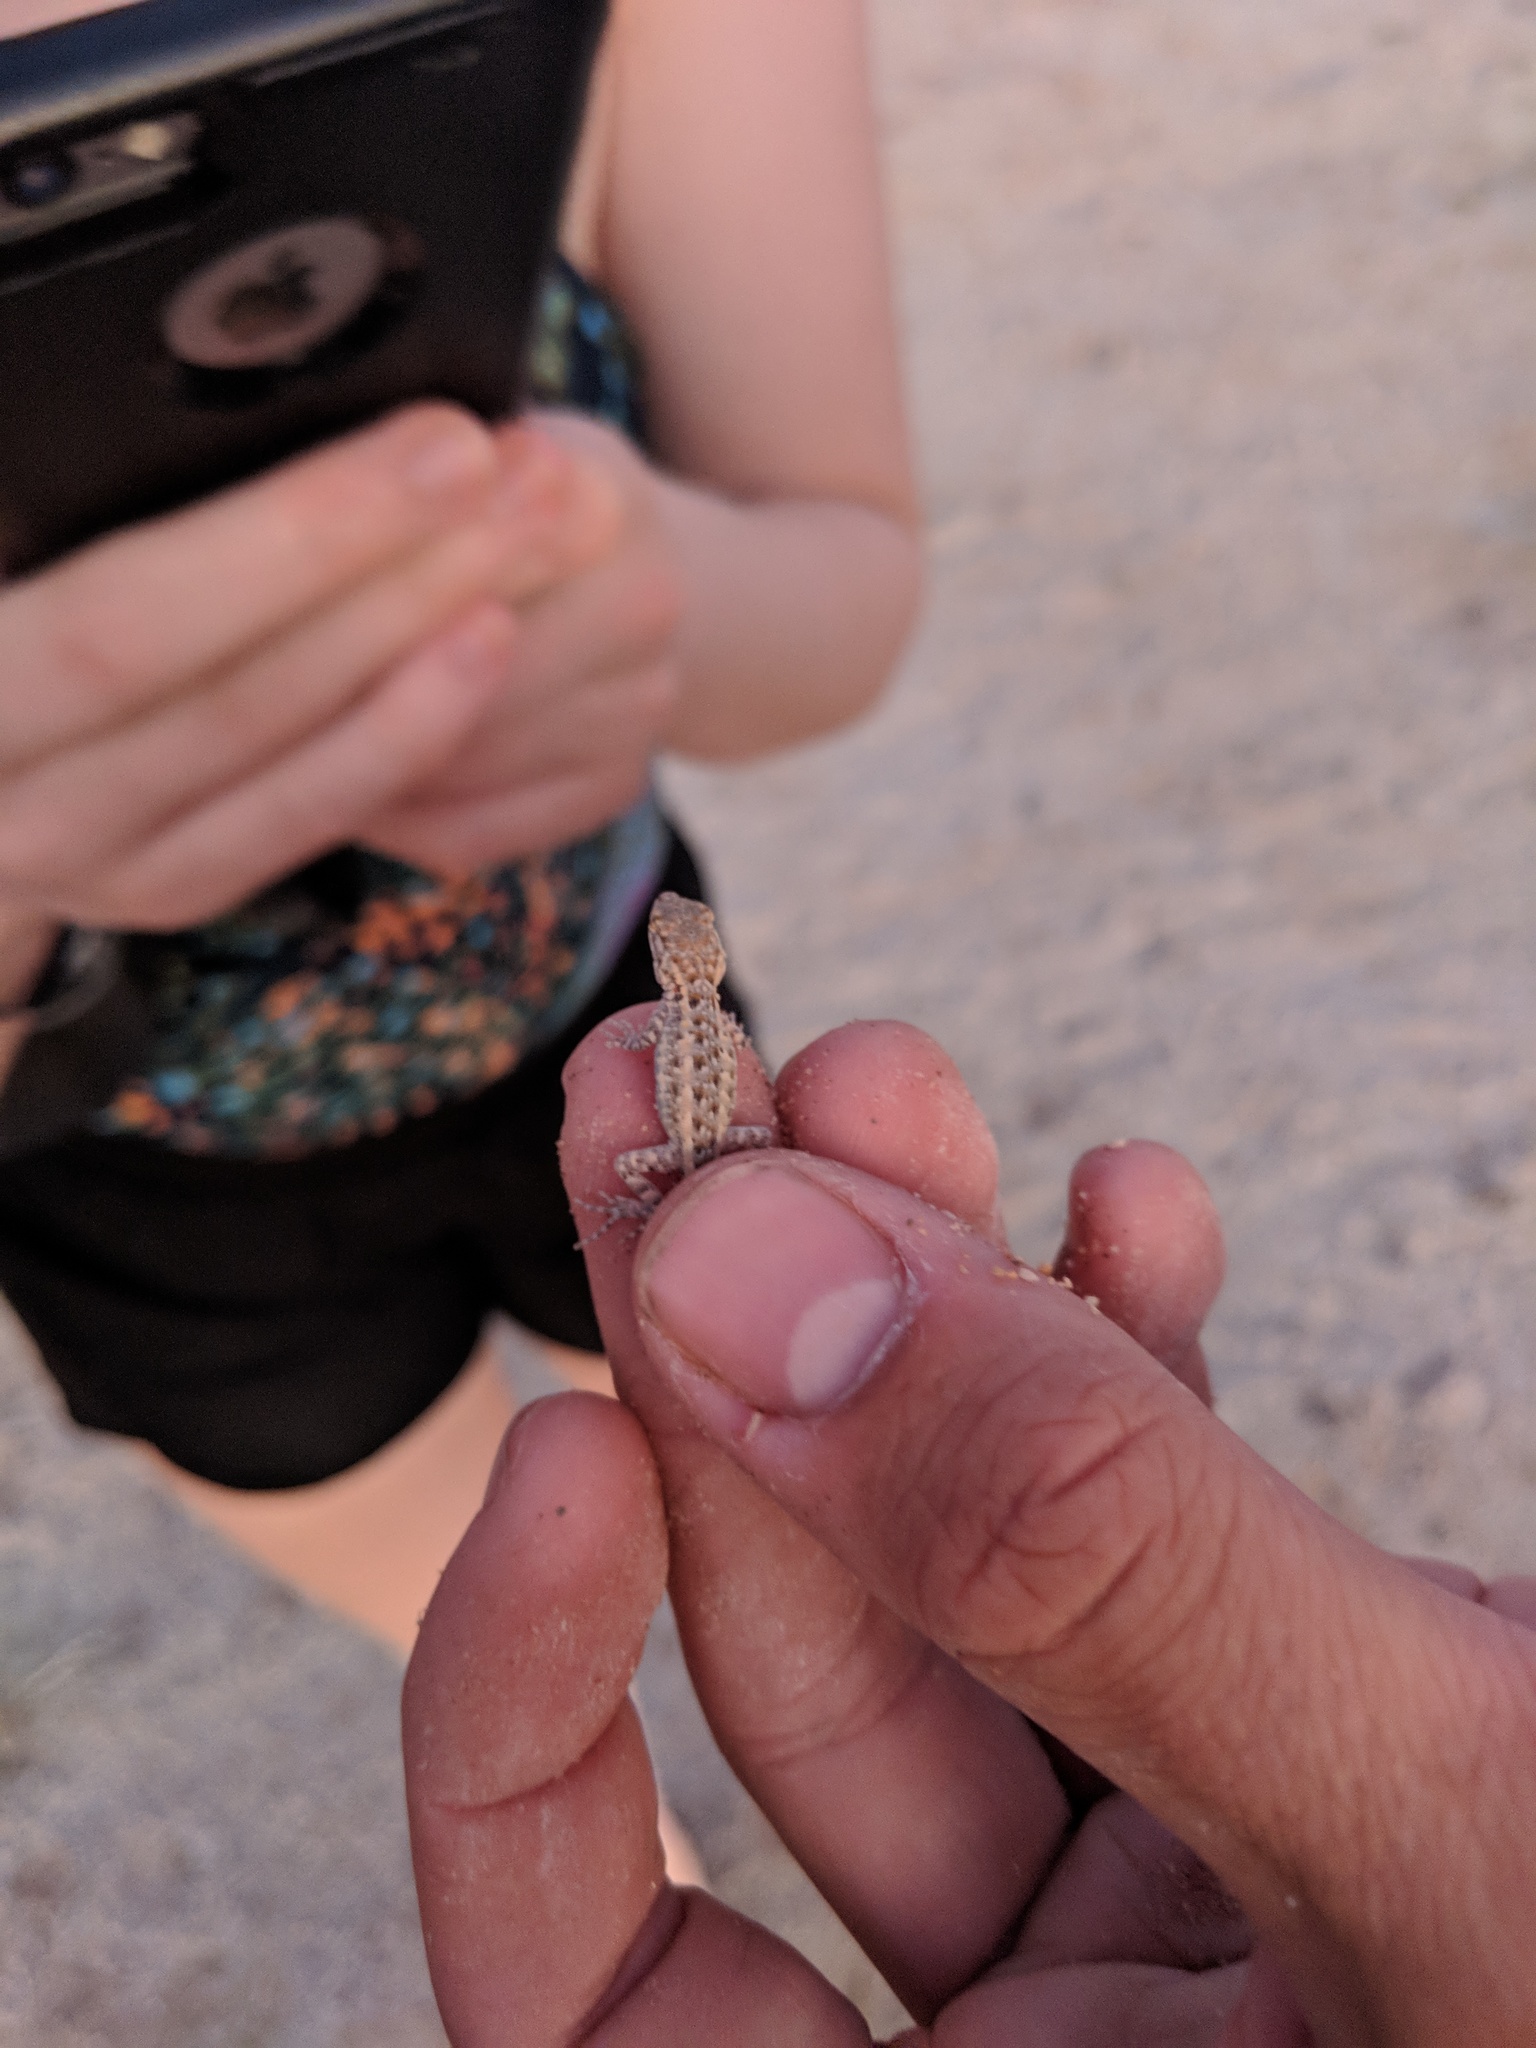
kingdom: Animalia
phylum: Chordata
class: Squamata
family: Phrynosomatidae
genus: Uta
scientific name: Uta stansburiana
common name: Side-blotched lizard
